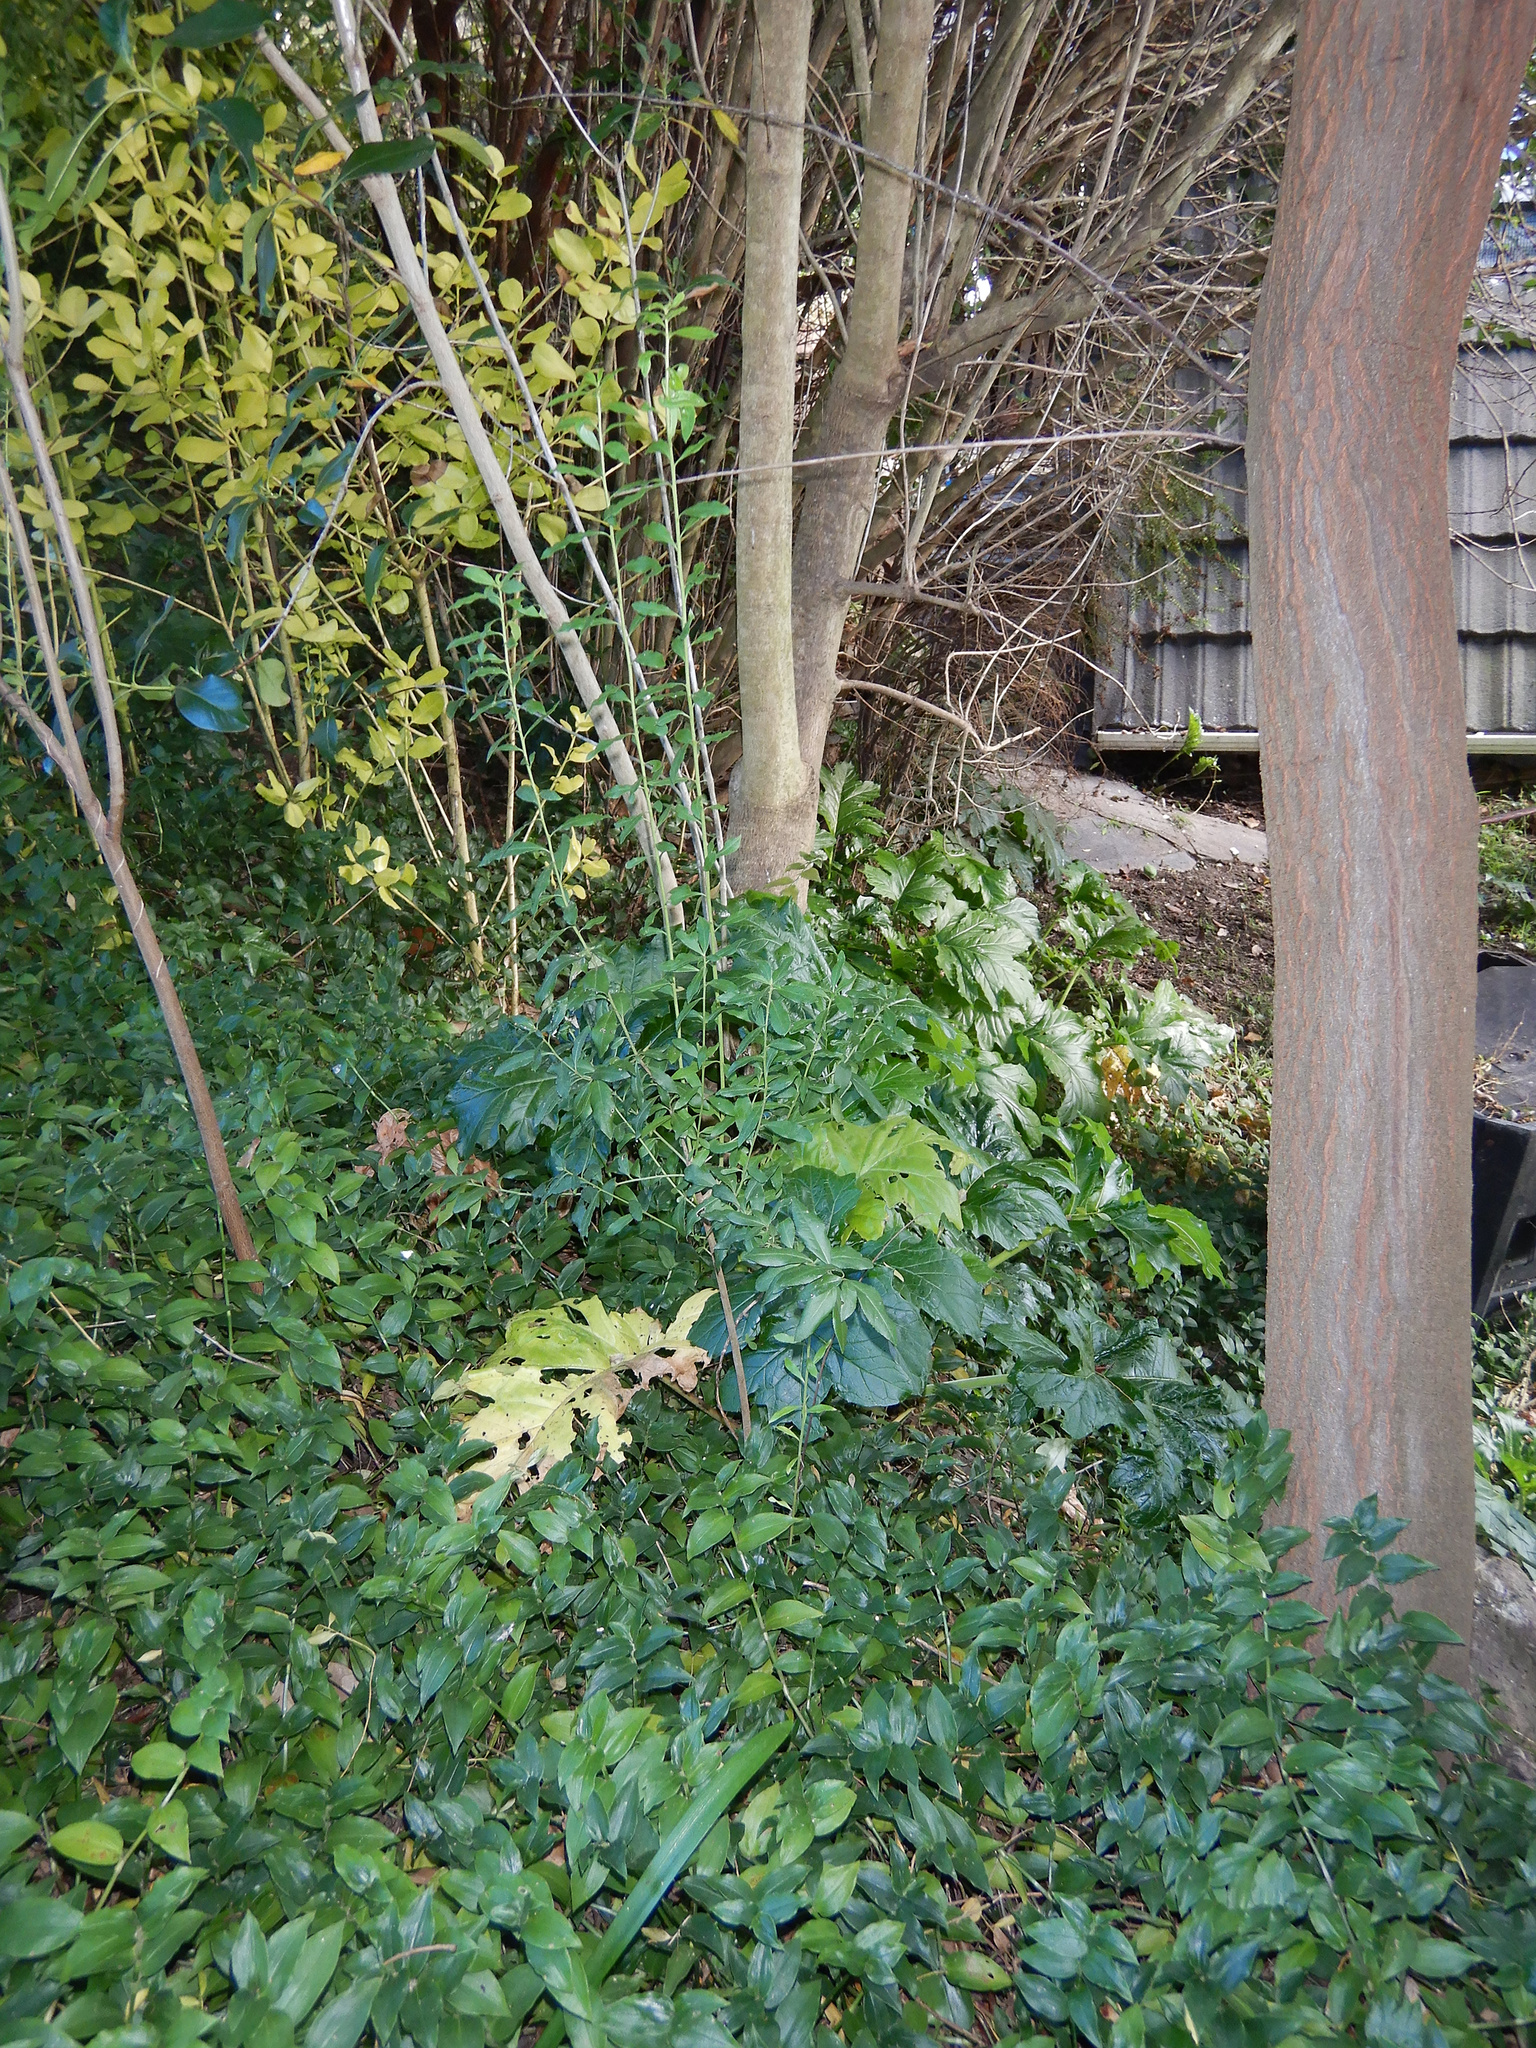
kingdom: Plantae
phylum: Tracheophyta
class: Liliopsida
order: Commelinales
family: Commelinaceae
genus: Tradescantia
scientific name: Tradescantia fluminensis
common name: Wandering-jew
